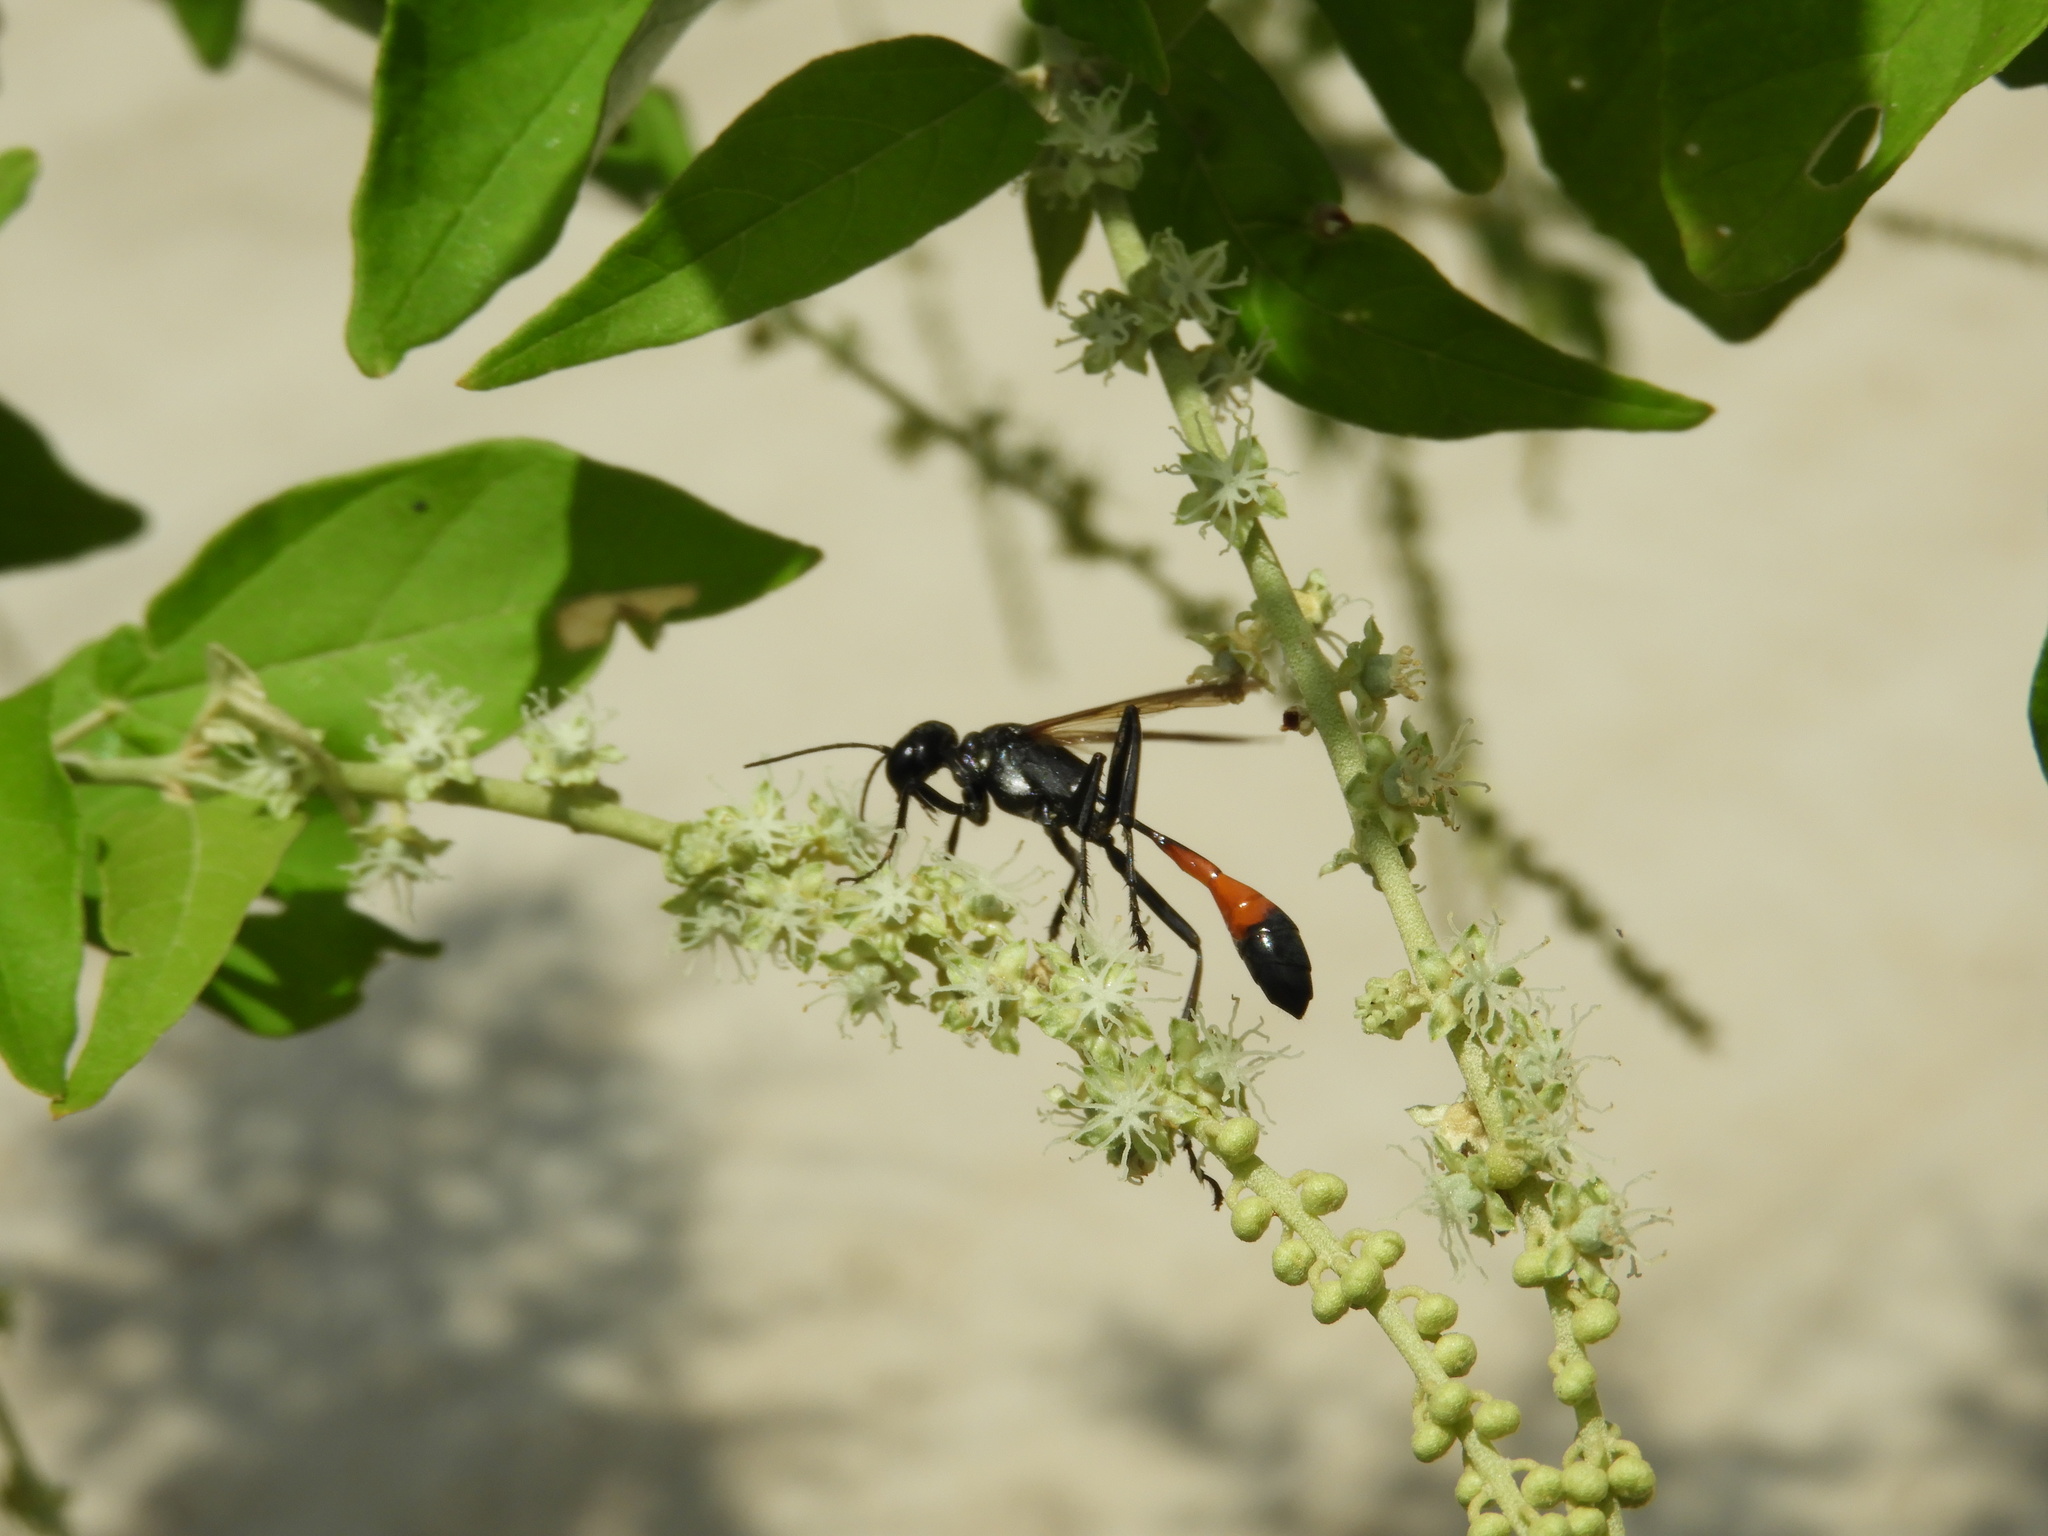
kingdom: Animalia
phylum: Arthropoda
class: Insecta
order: Hymenoptera
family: Sphecidae
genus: Ammophila
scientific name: Ammophila
